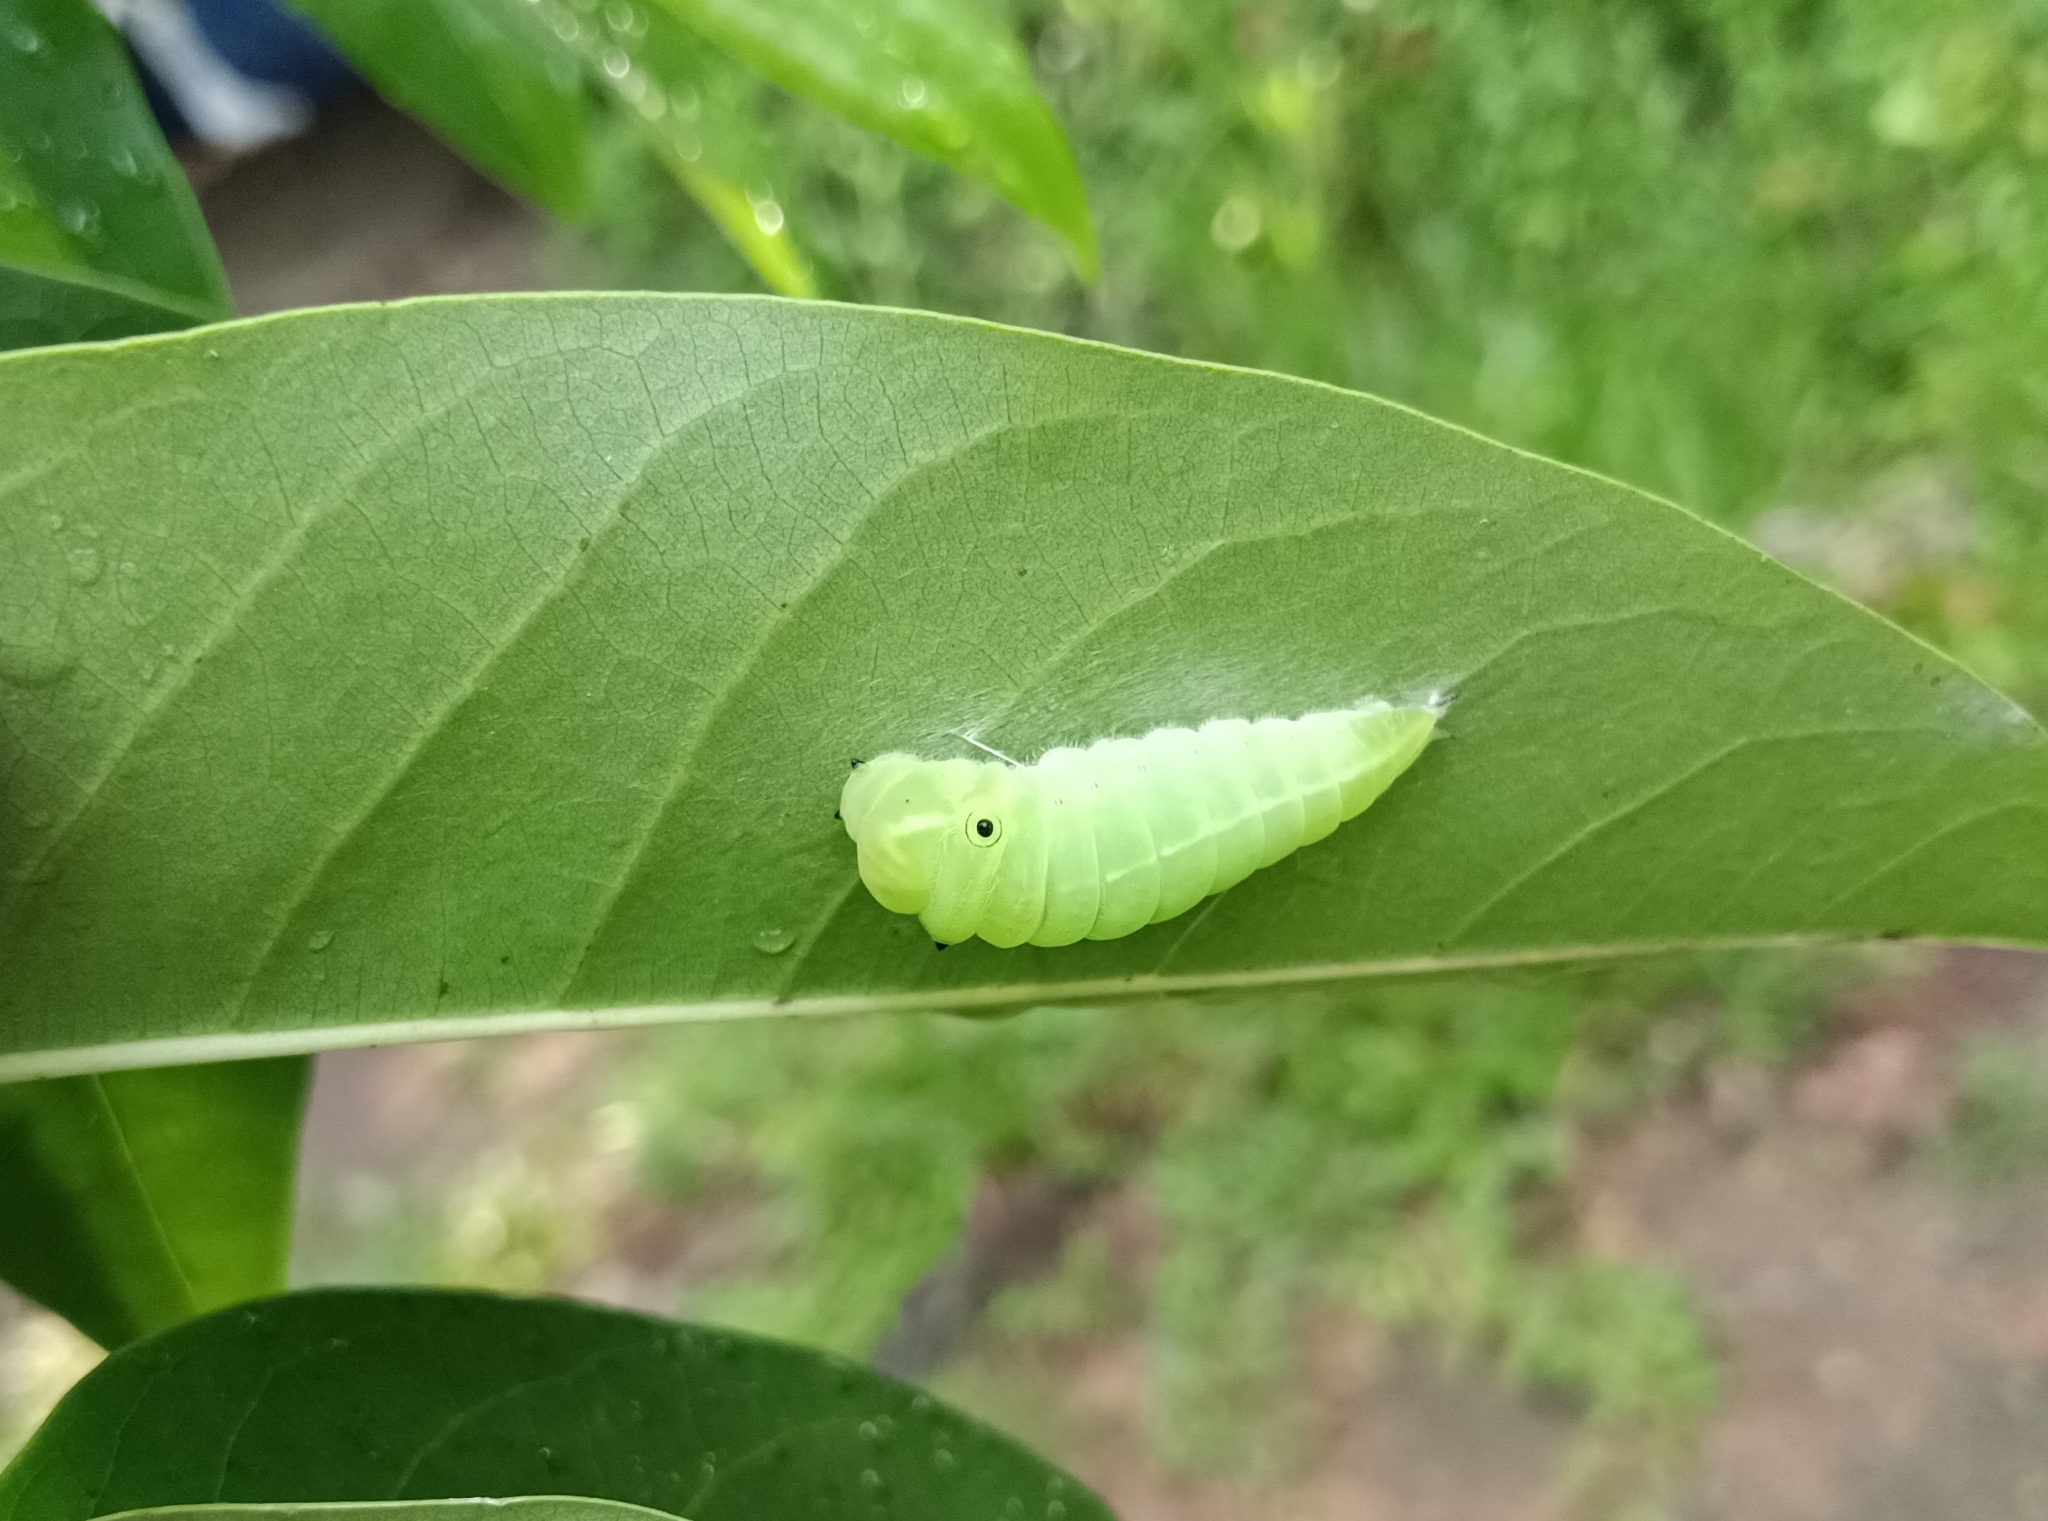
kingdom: Animalia
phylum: Arthropoda
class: Insecta
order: Lepidoptera
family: Papilionidae
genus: Graphium
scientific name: Graphium doson
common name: Common jay
